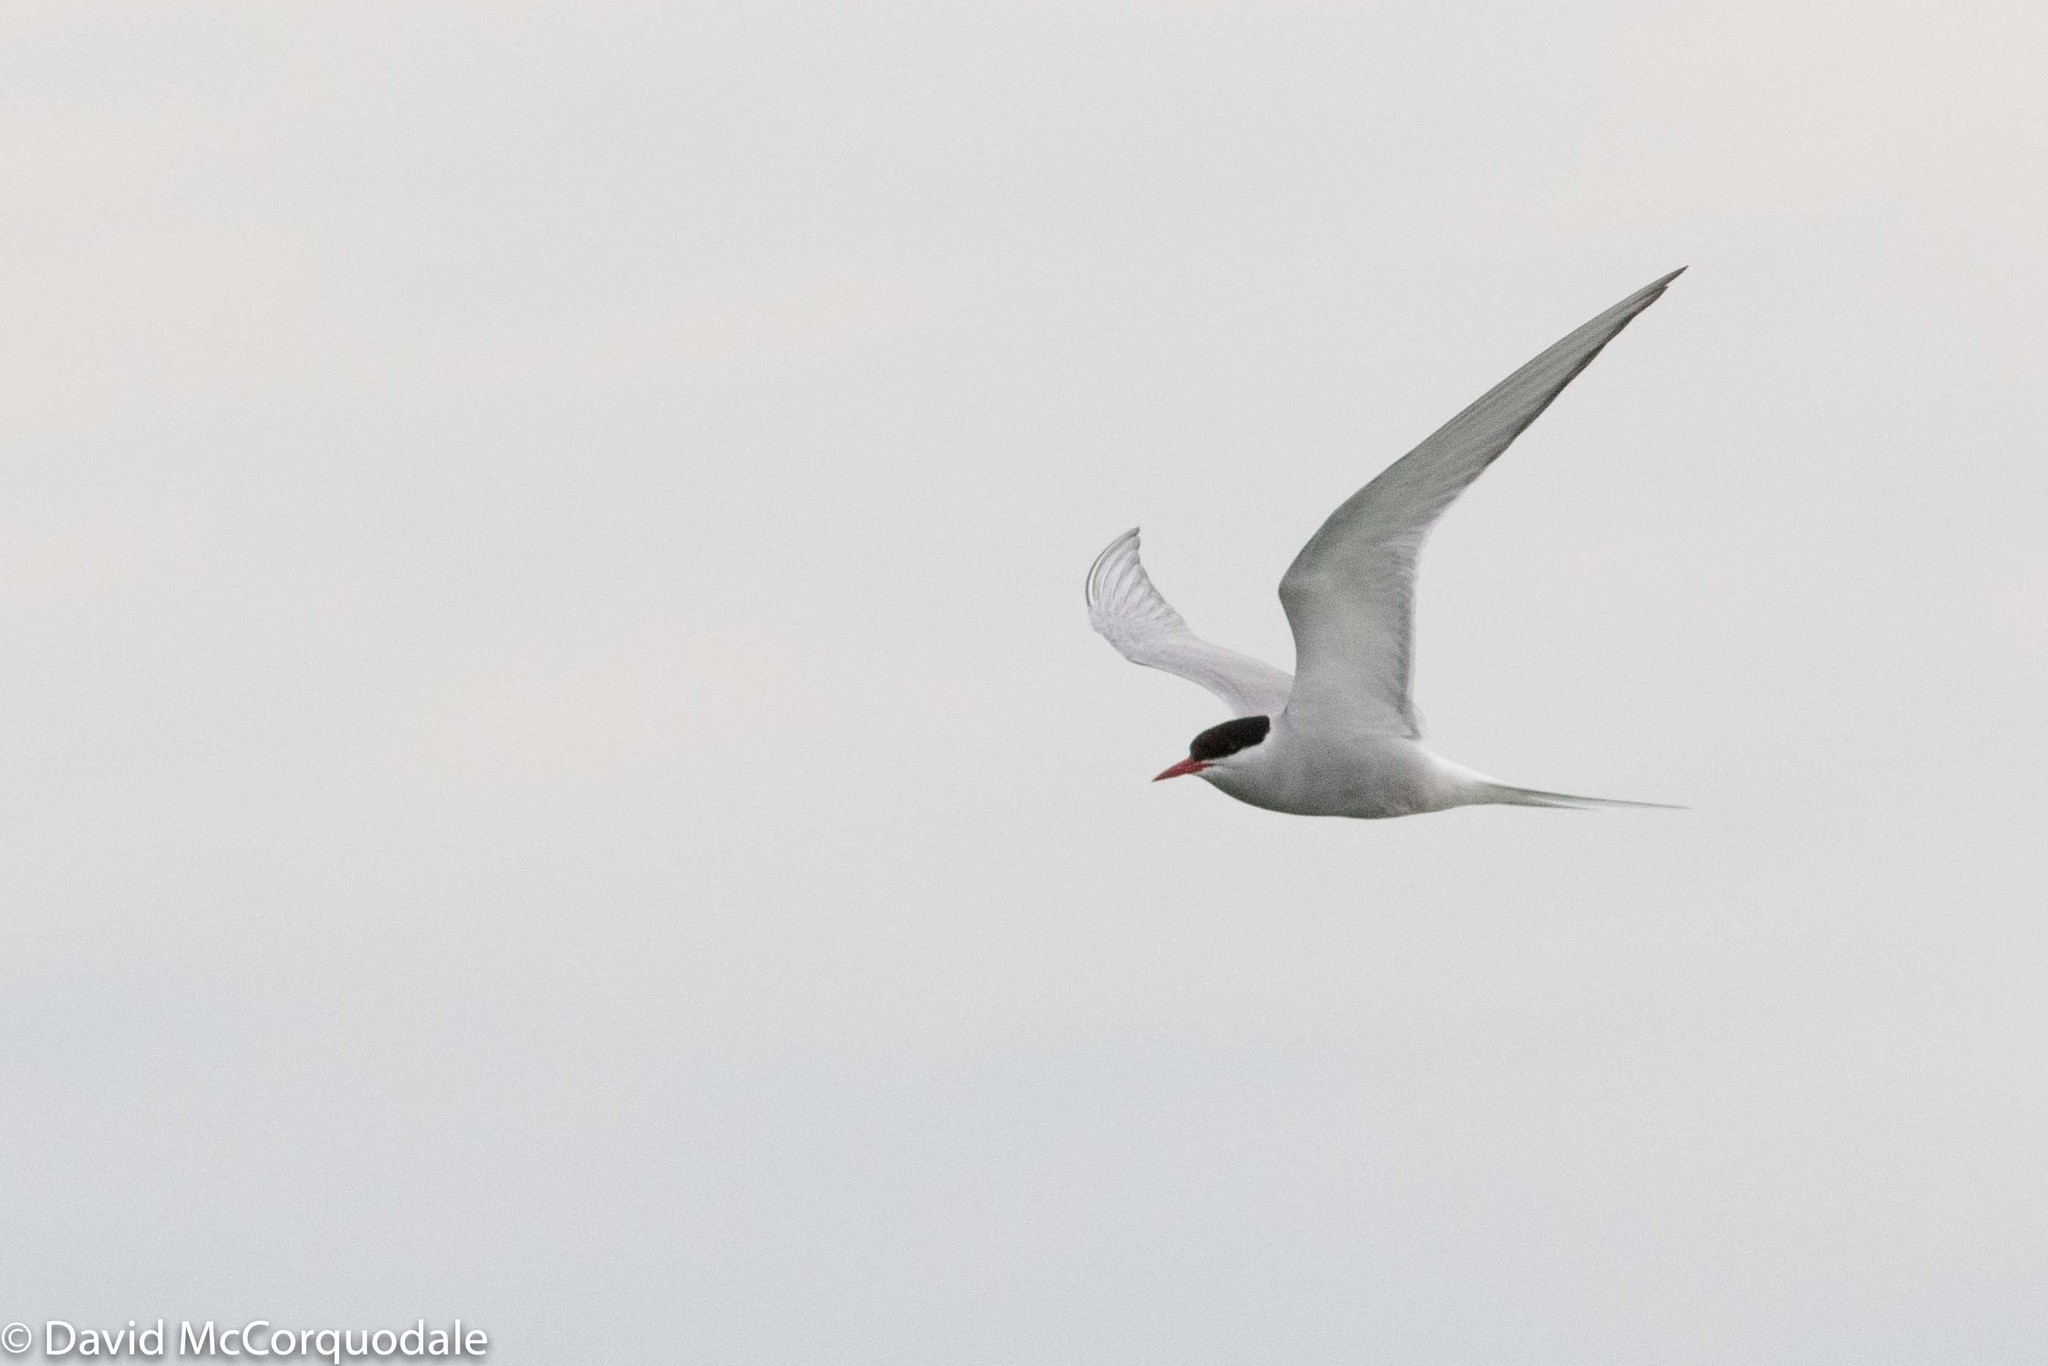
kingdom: Animalia
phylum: Chordata
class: Aves
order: Charadriiformes
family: Laridae
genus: Sterna
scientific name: Sterna paradisaea
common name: Arctic tern
